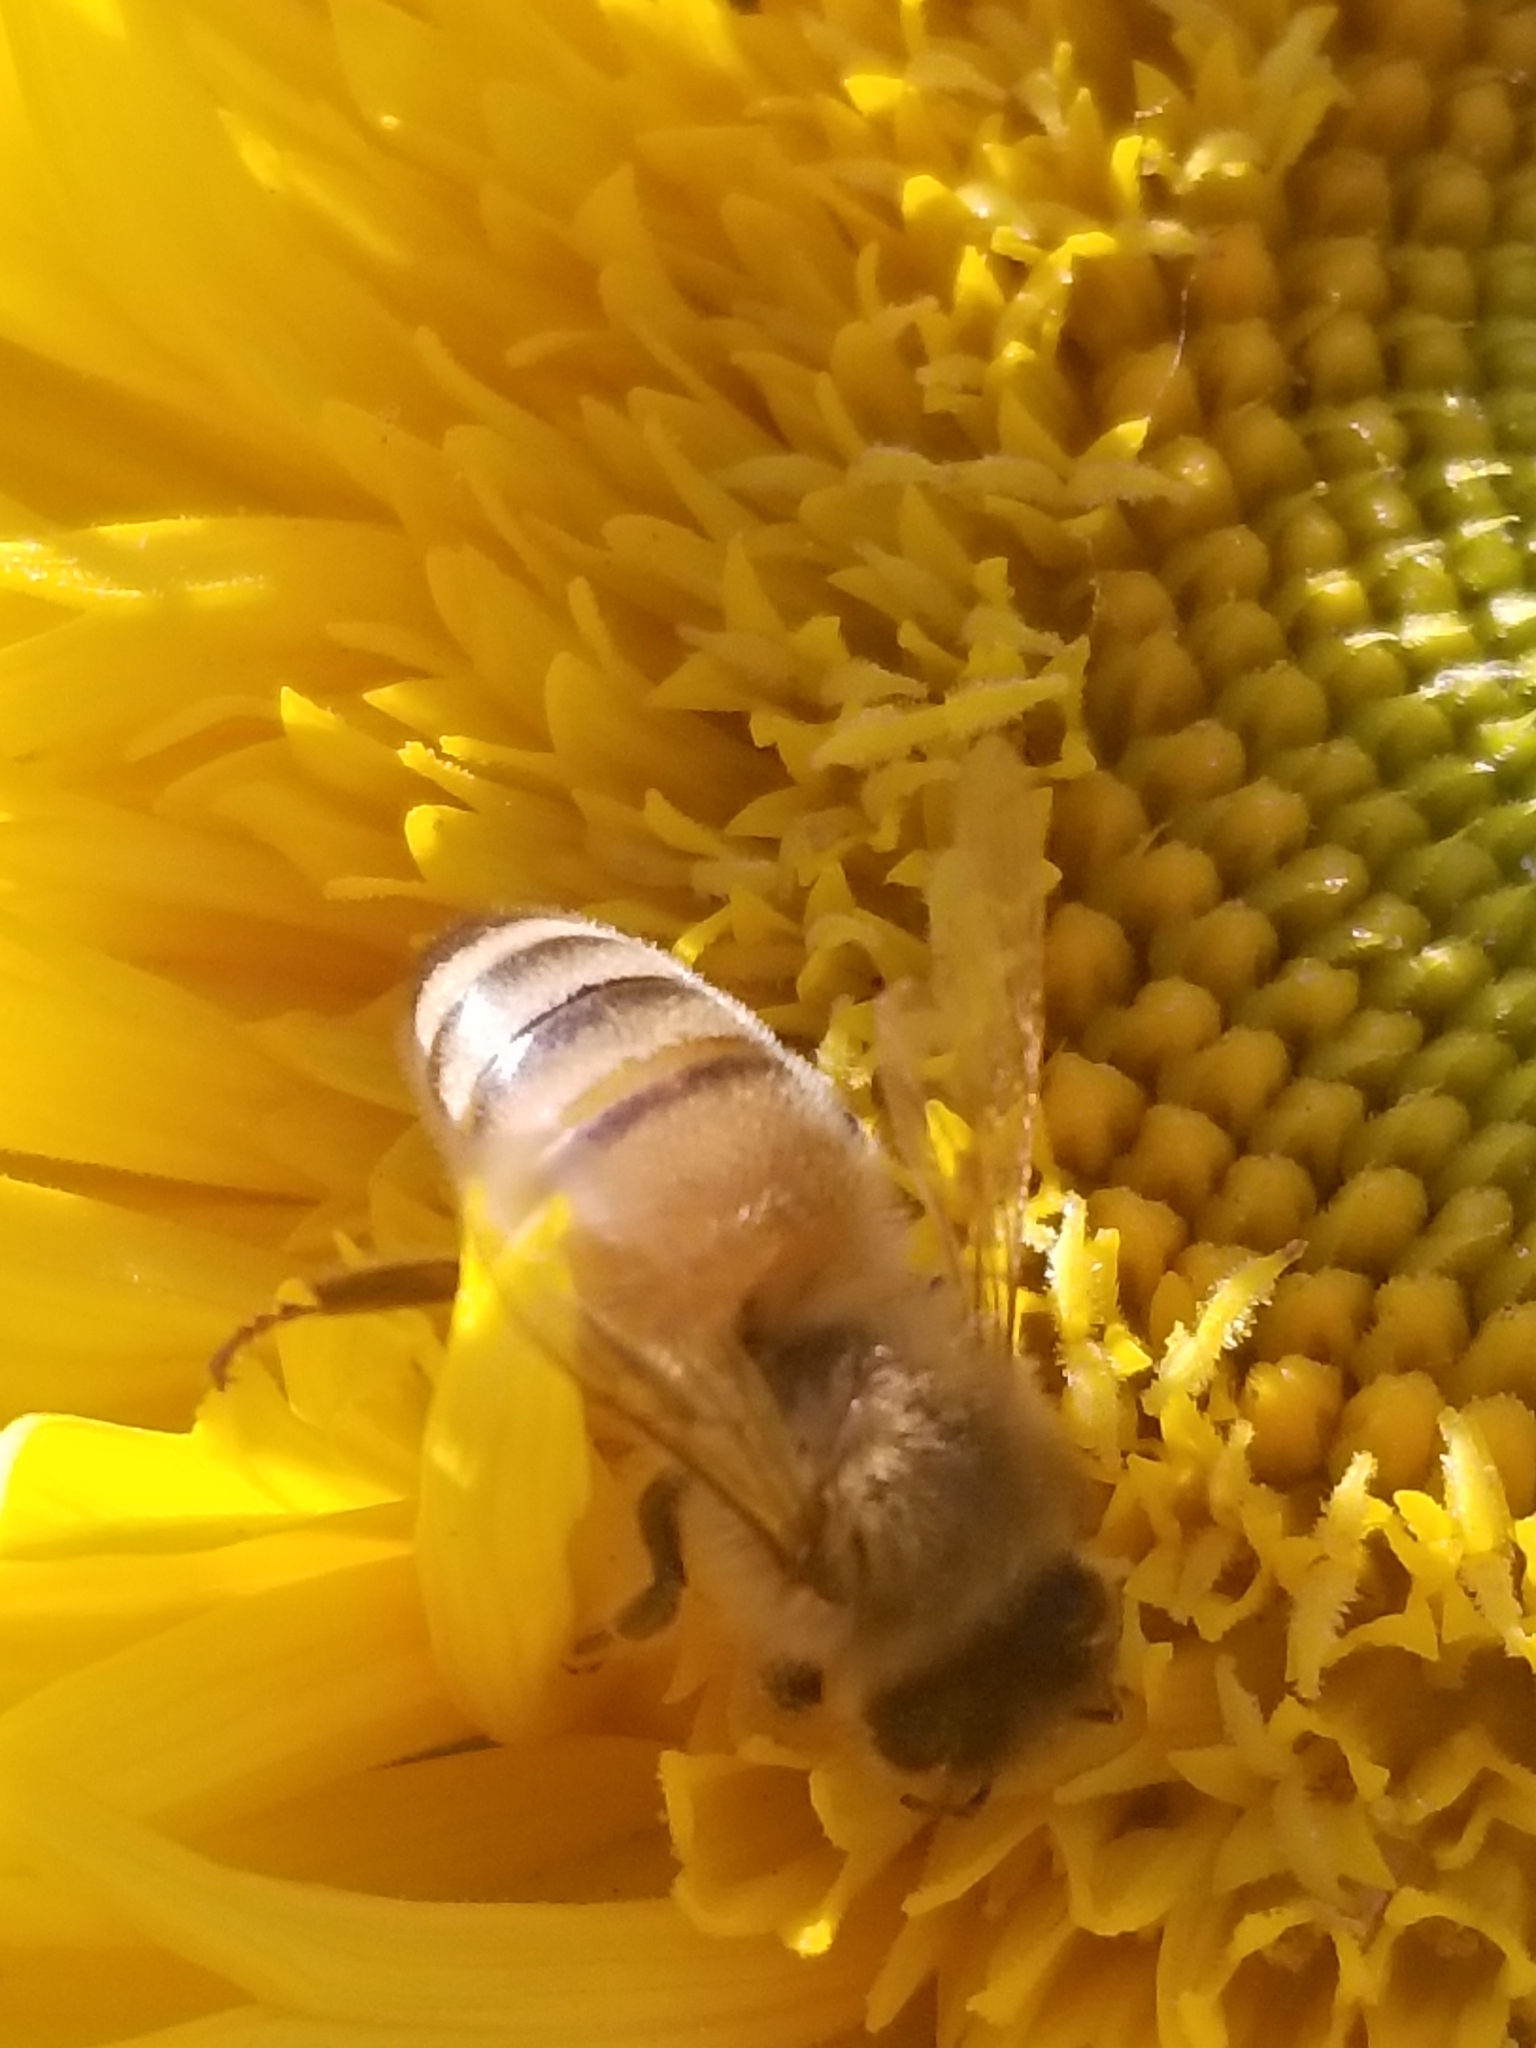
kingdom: Animalia
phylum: Arthropoda
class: Insecta
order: Hymenoptera
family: Apidae
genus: Apis
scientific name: Apis mellifera
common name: Honey bee
